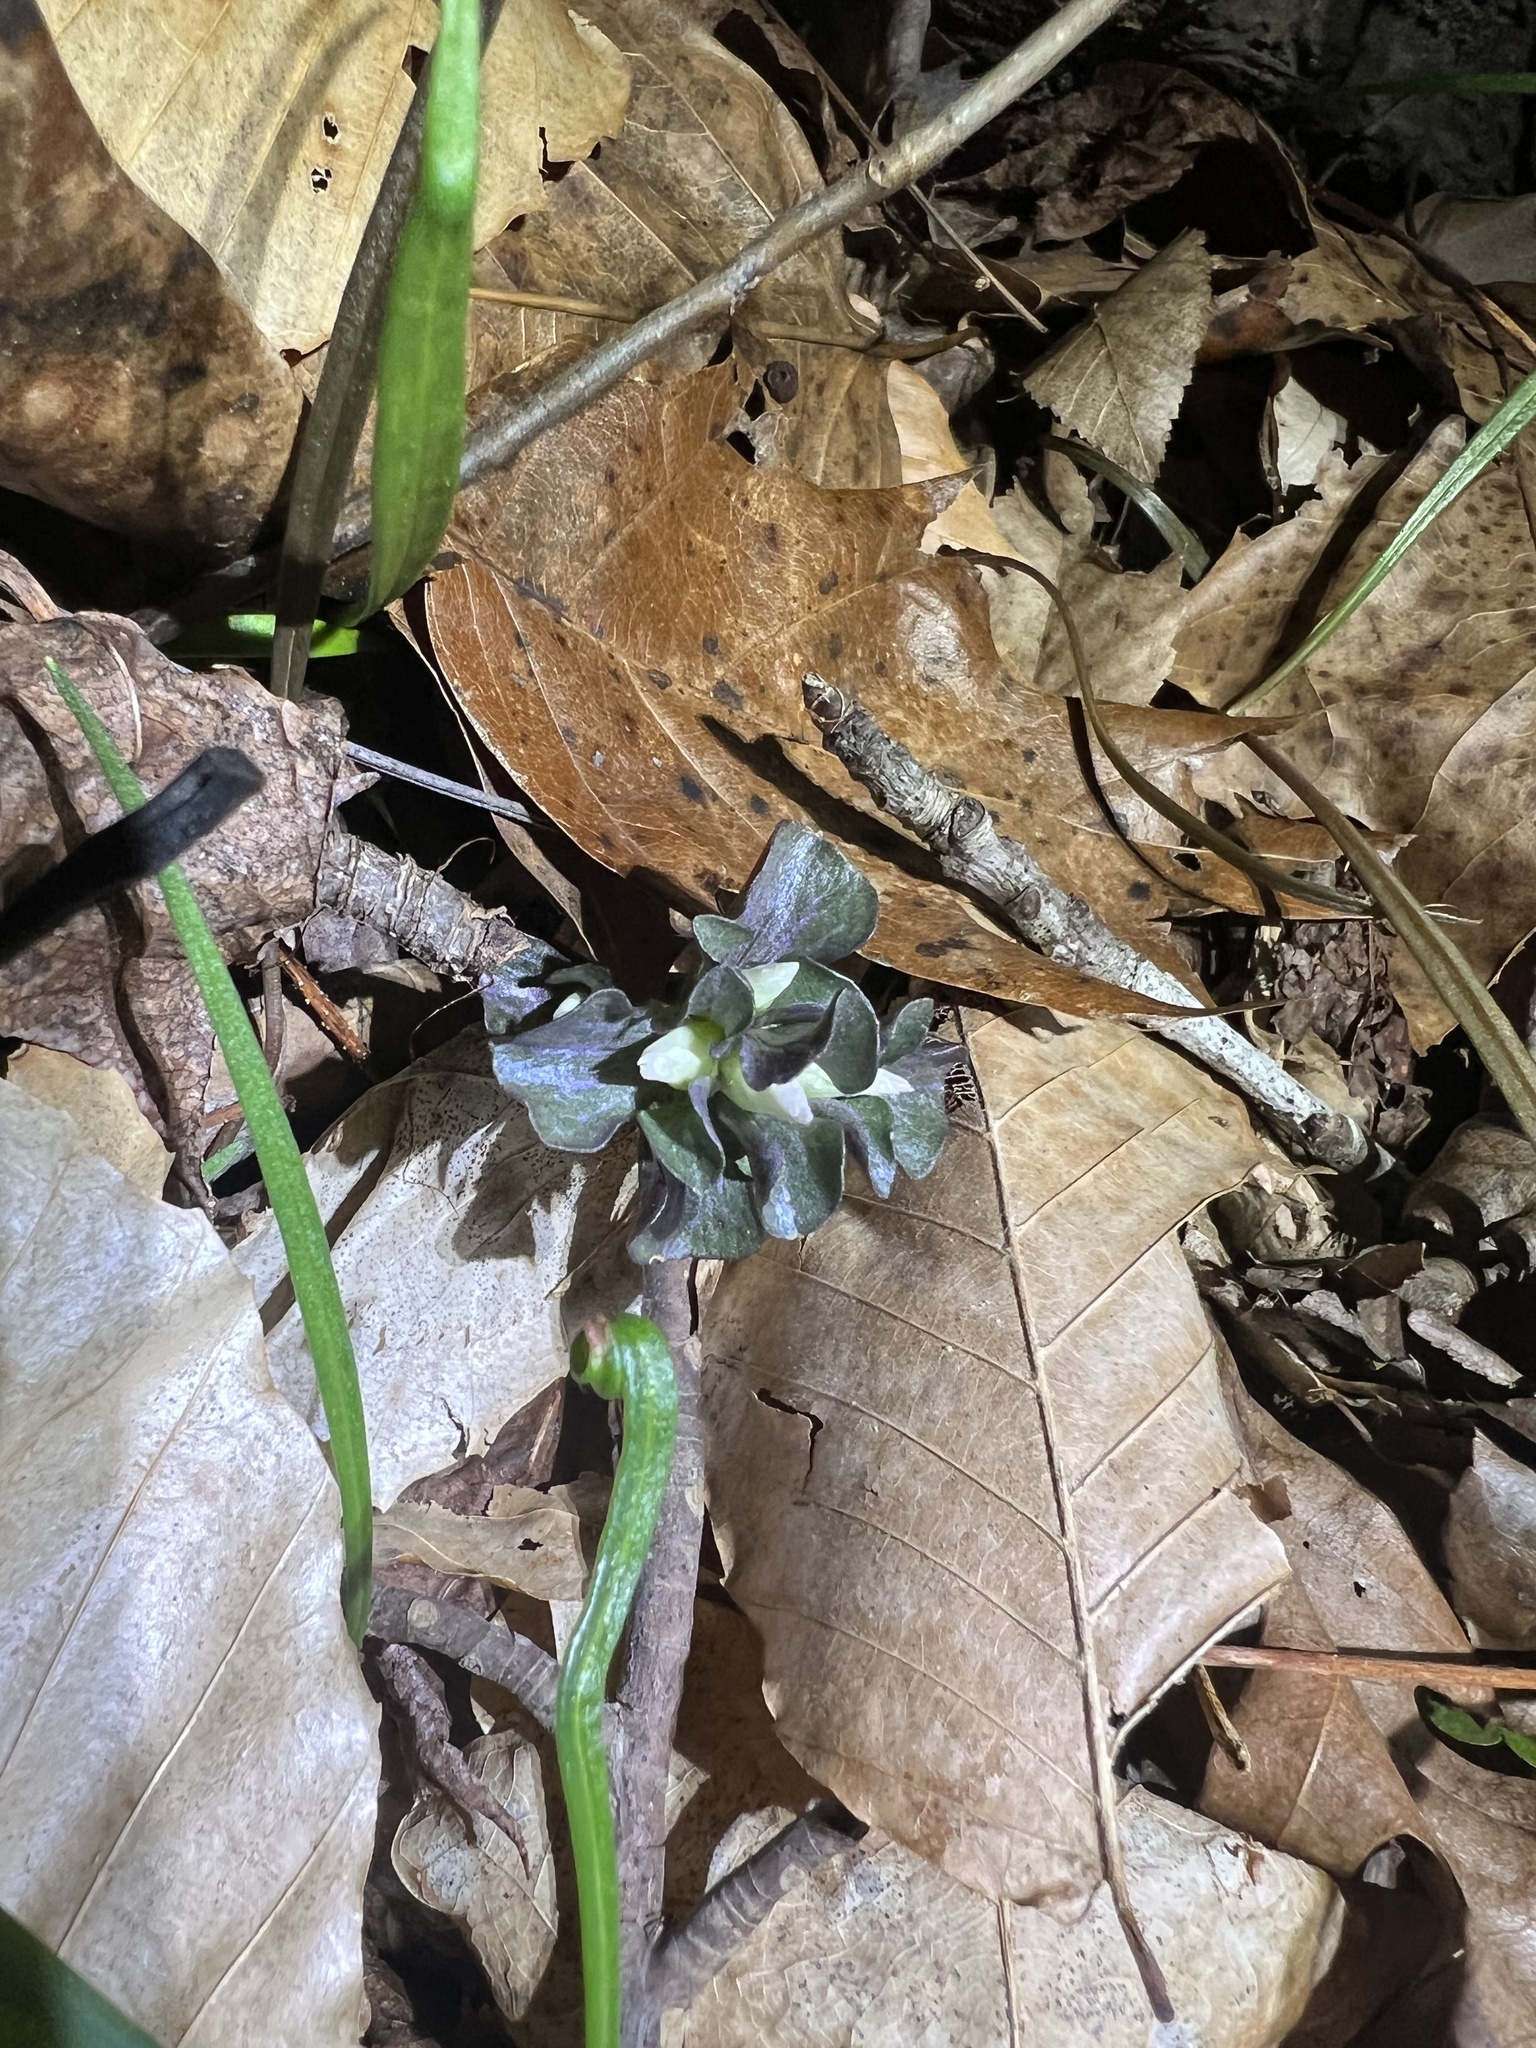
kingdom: Plantae
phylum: Tracheophyta
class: Magnoliopsida
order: Gentianales
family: Gentianaceae
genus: Obolaria
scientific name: Obolaria virginica
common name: Pennywort
